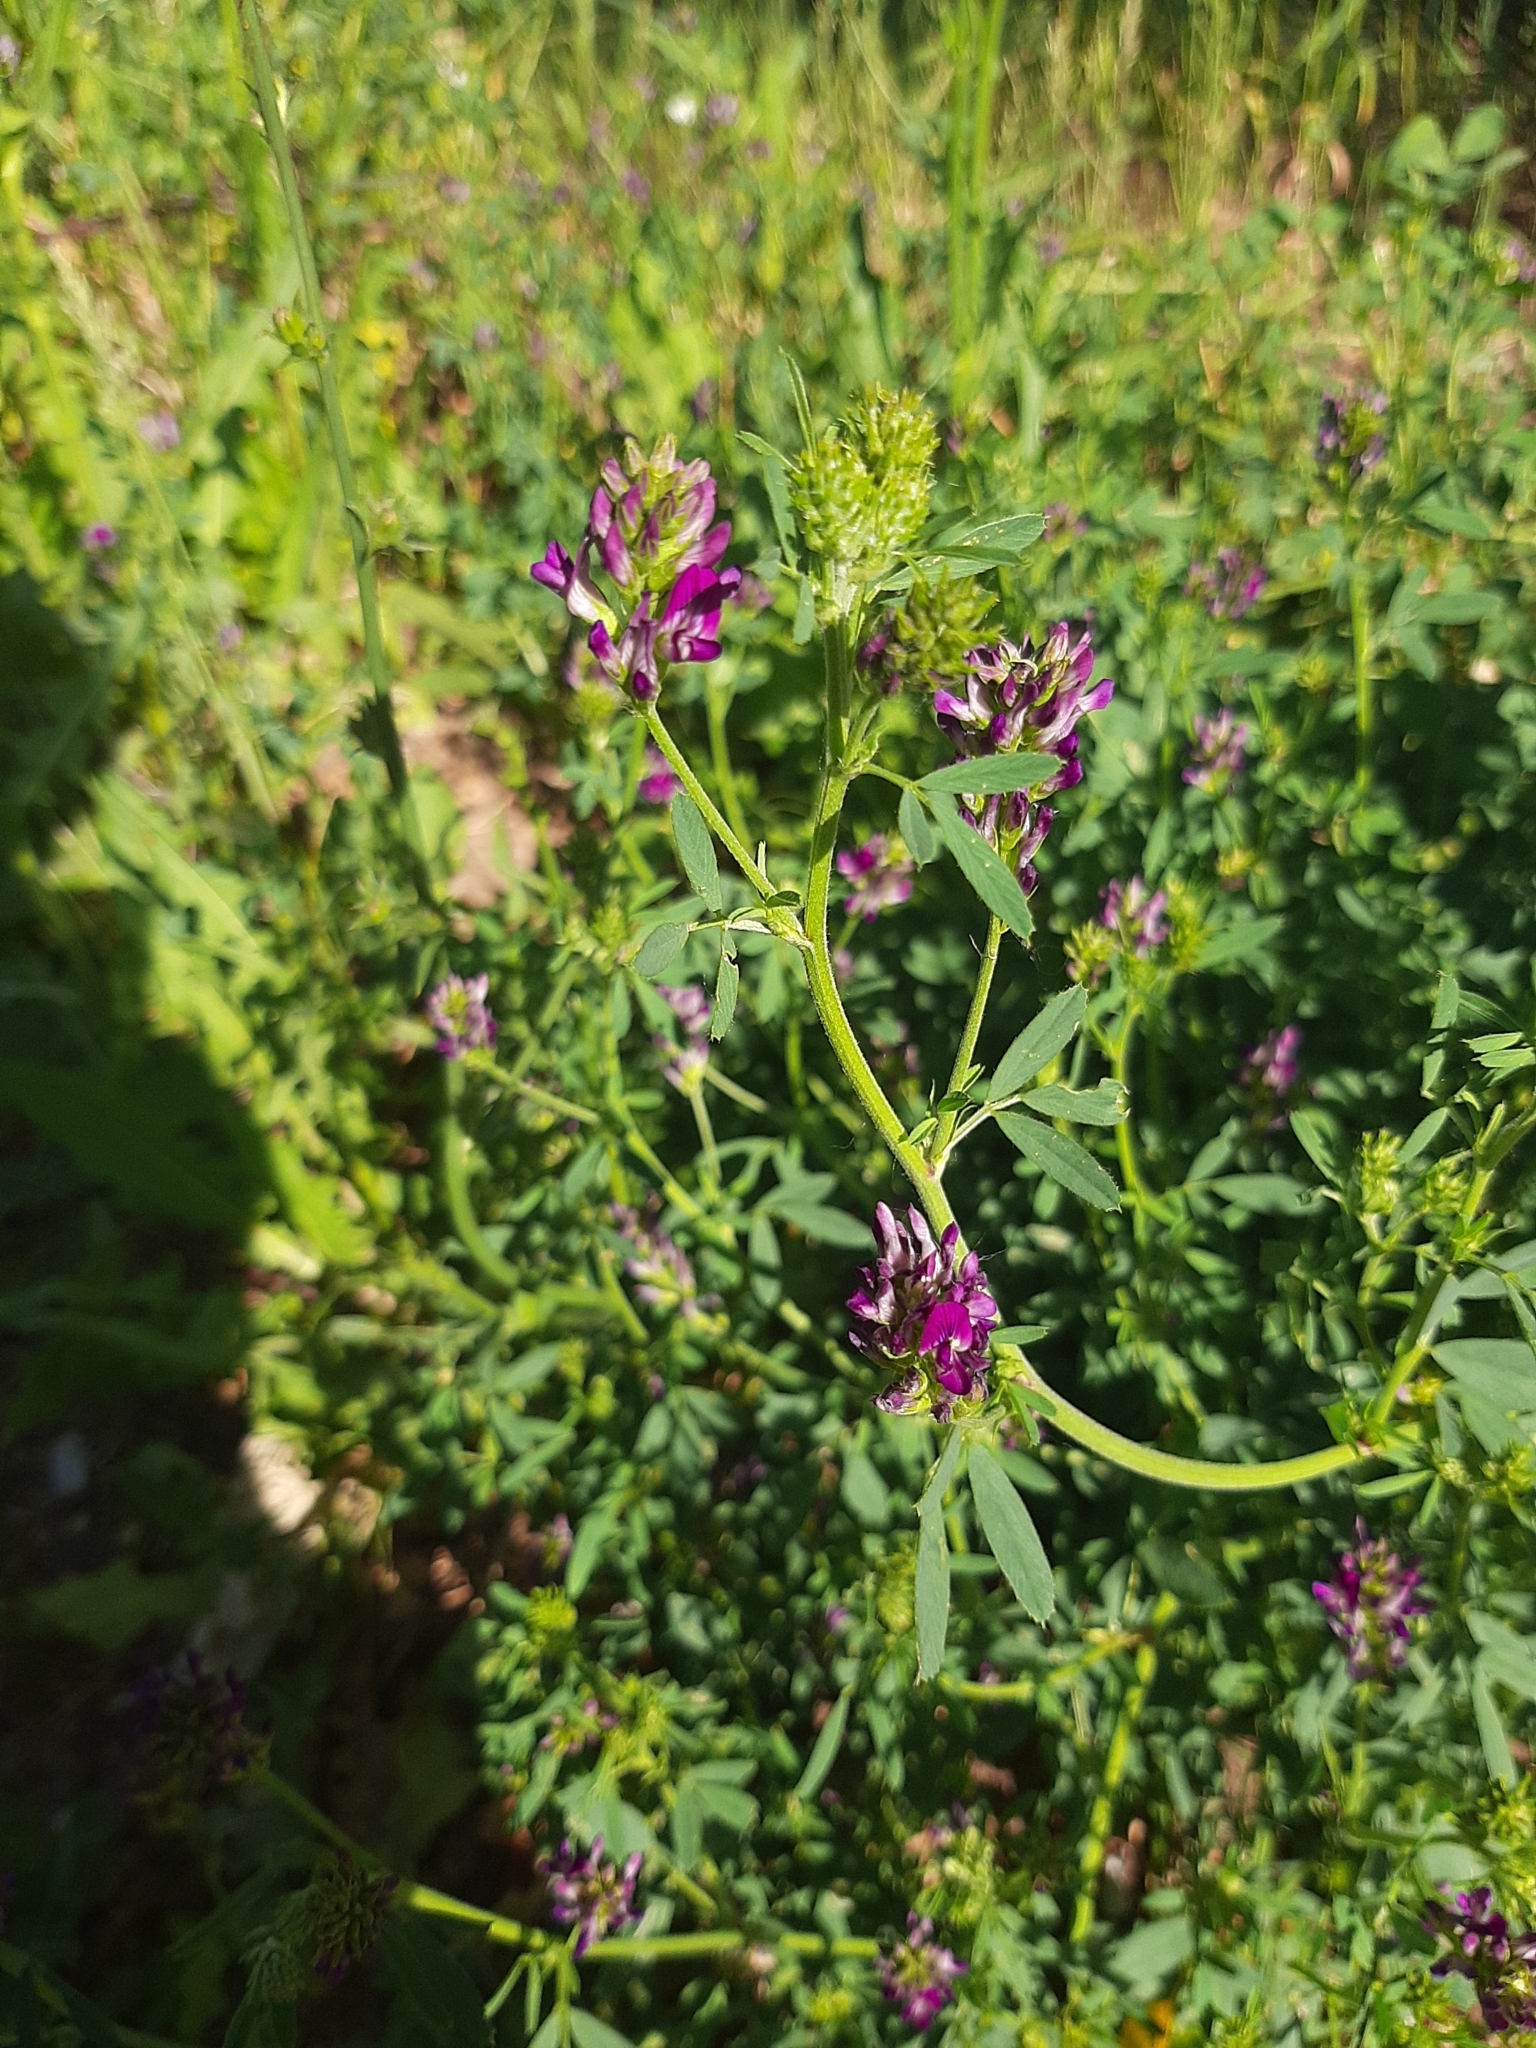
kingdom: Plantae
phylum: Tracheophyta
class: Magnoliopsida
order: Fabales
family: Fabaceae
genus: Medicago
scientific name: Medicago sativa
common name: Alfalfa
